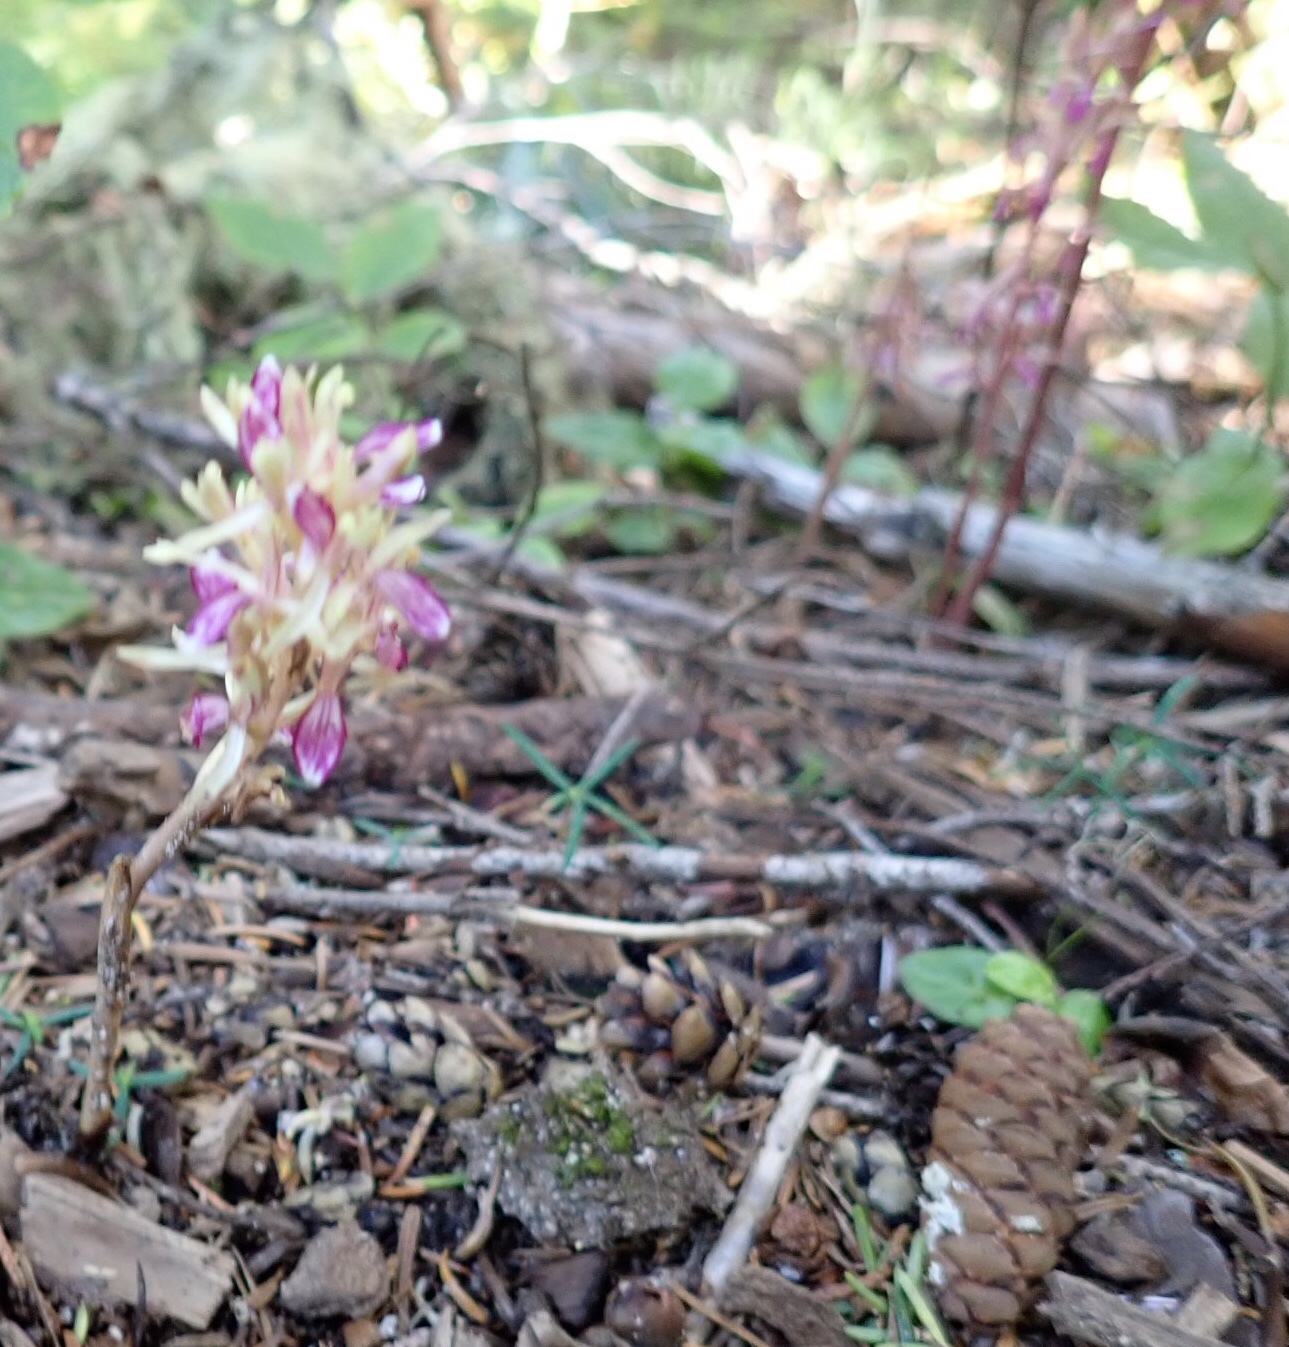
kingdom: Plantae
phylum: Tracheophyta
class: Liliopsida
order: Asparagales
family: Orchidaceae
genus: Corallorhiza
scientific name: Corallorhiza mertensiana
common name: Pacific coralroot
